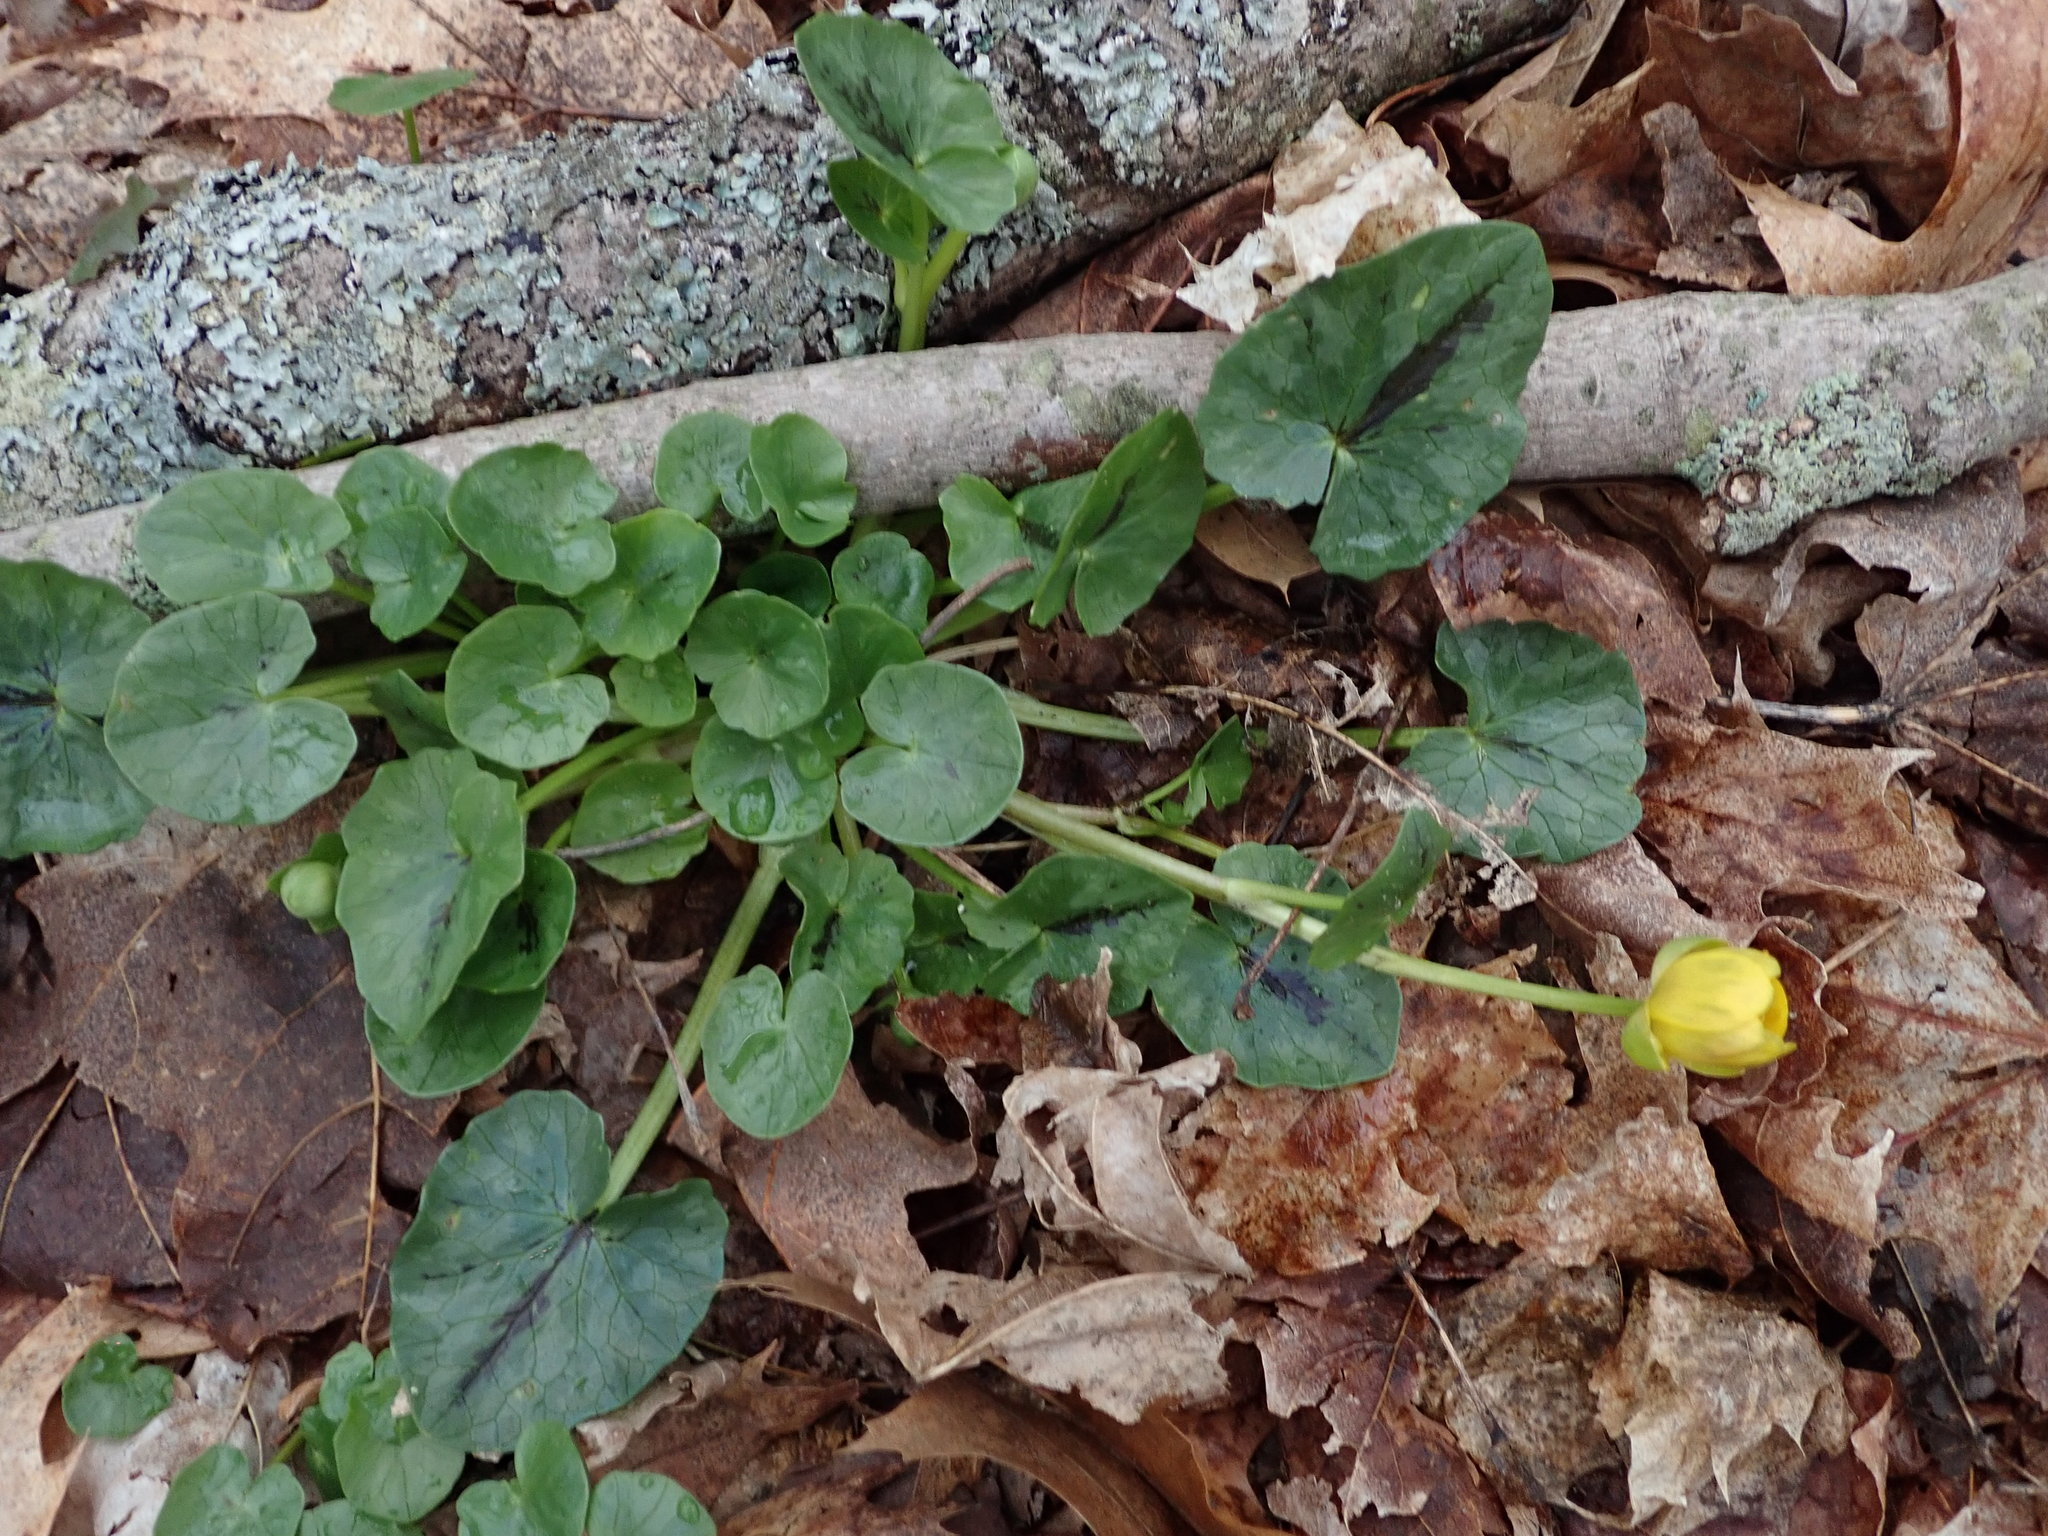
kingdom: Plantae
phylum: Tracheophyta
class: Magnoliopsida
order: Ranunculales
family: Ranunculaceae
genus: Ficaria
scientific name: Ficaria verna
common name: Lesser celandine
